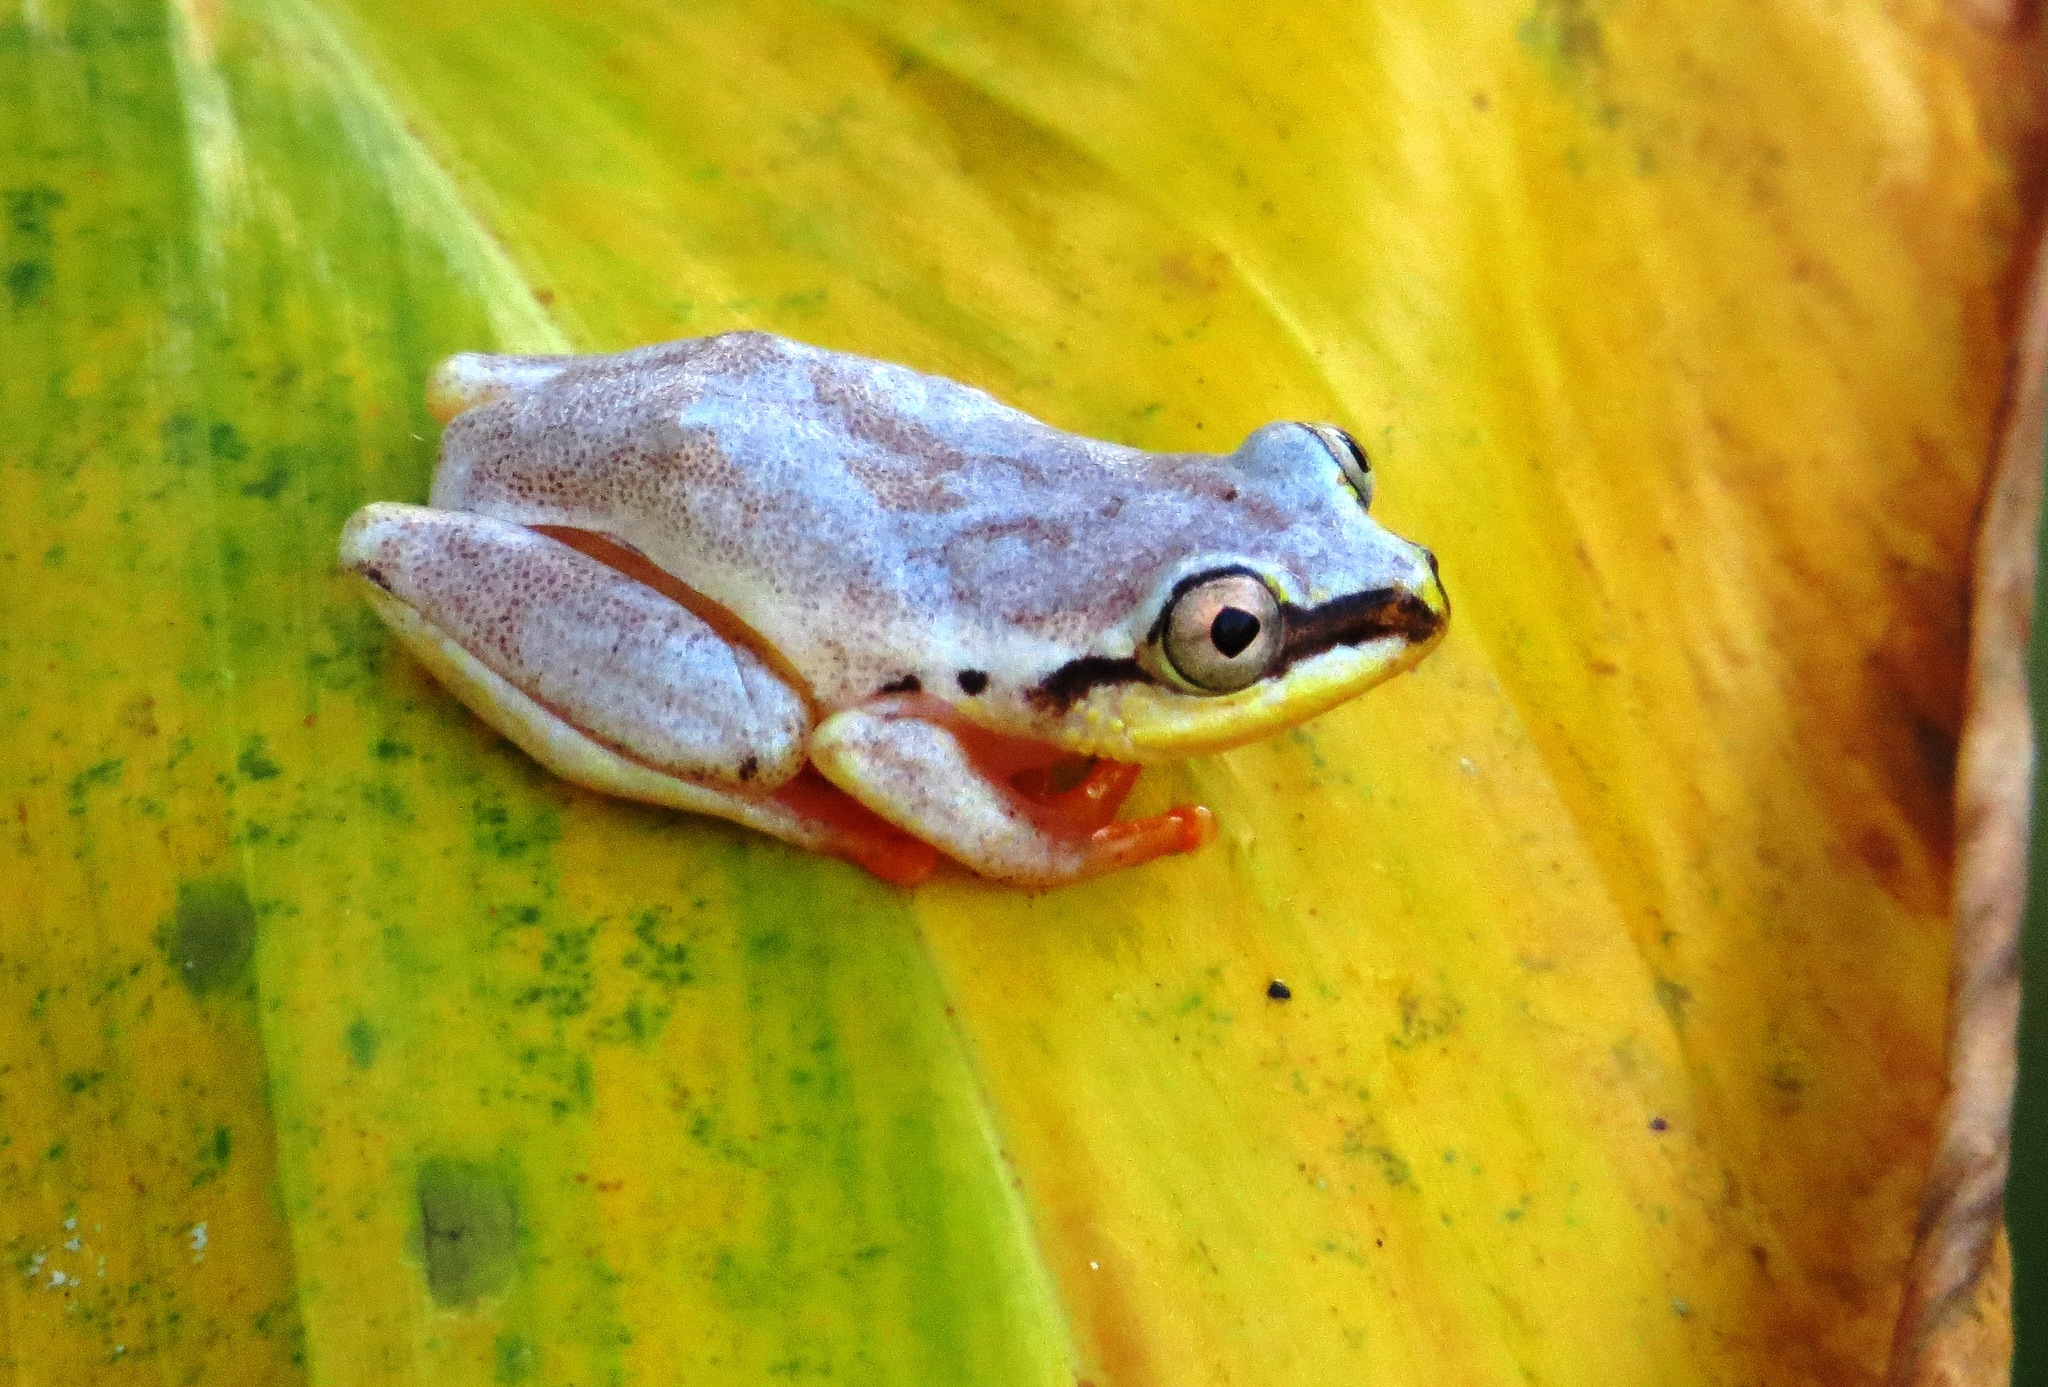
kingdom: Animalia
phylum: Chordata
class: Amphibia
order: Anura
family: Hyperoliidae
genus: Heterixalus
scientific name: Heterixalus madagascariensis
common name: Madagascar reed frog
